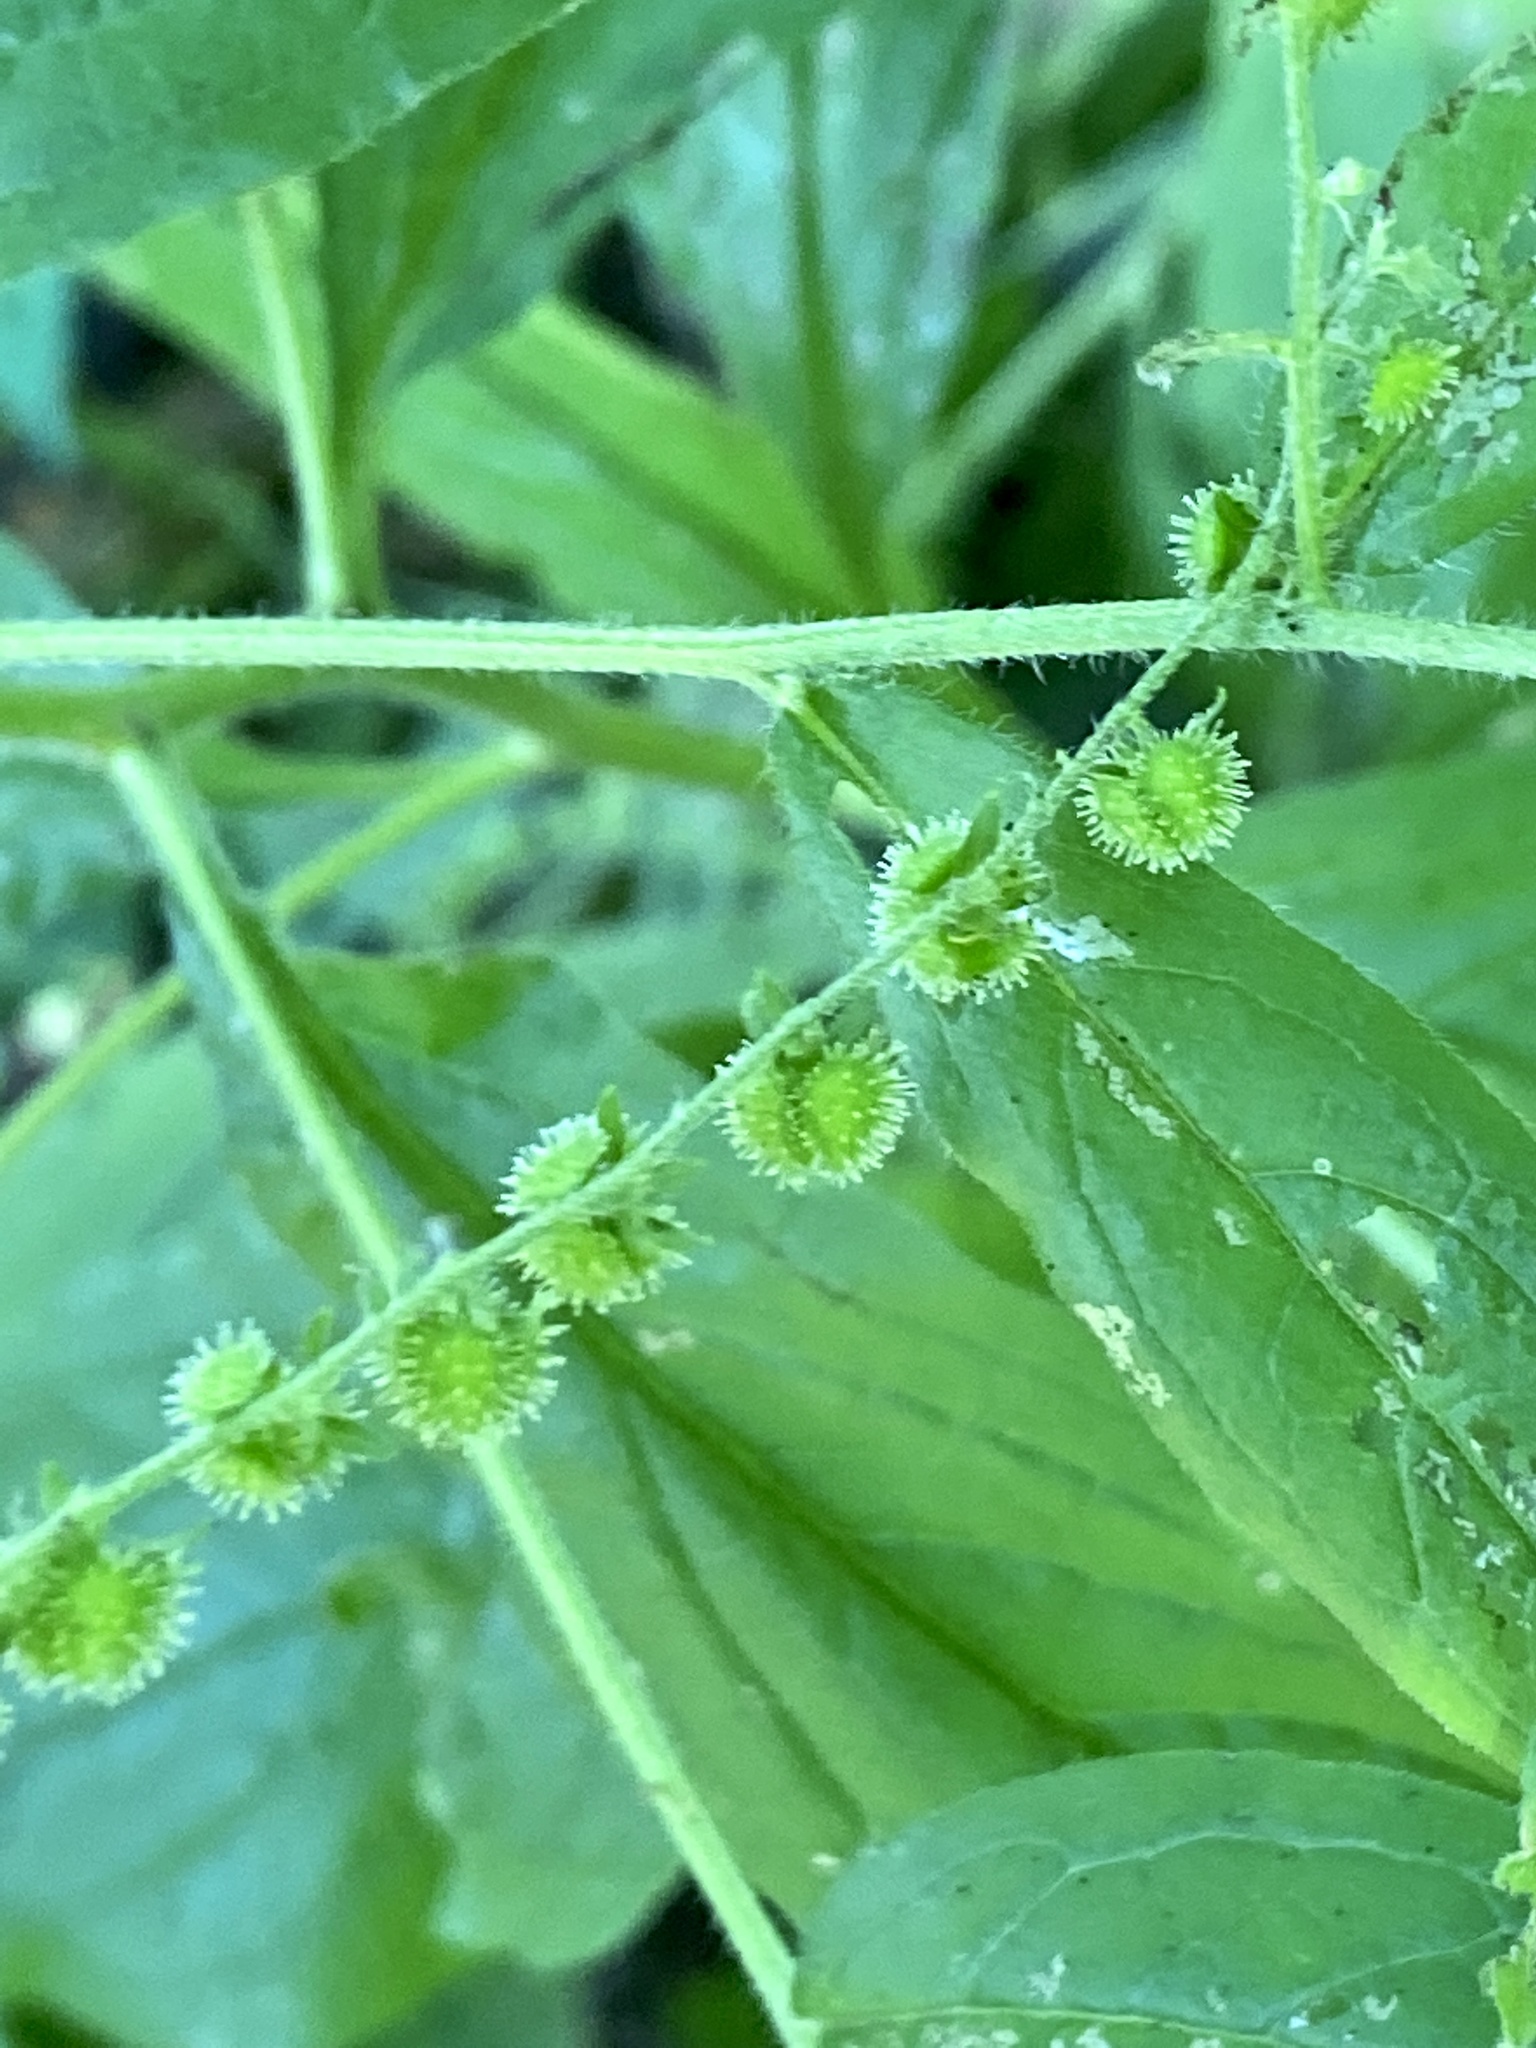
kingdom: Plantae
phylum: Tracheophyta
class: Magnoliopsida
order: Boraginales
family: Boraginaceae
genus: Hackelia
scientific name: Hackelia virginiana
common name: Beggar's-lice
